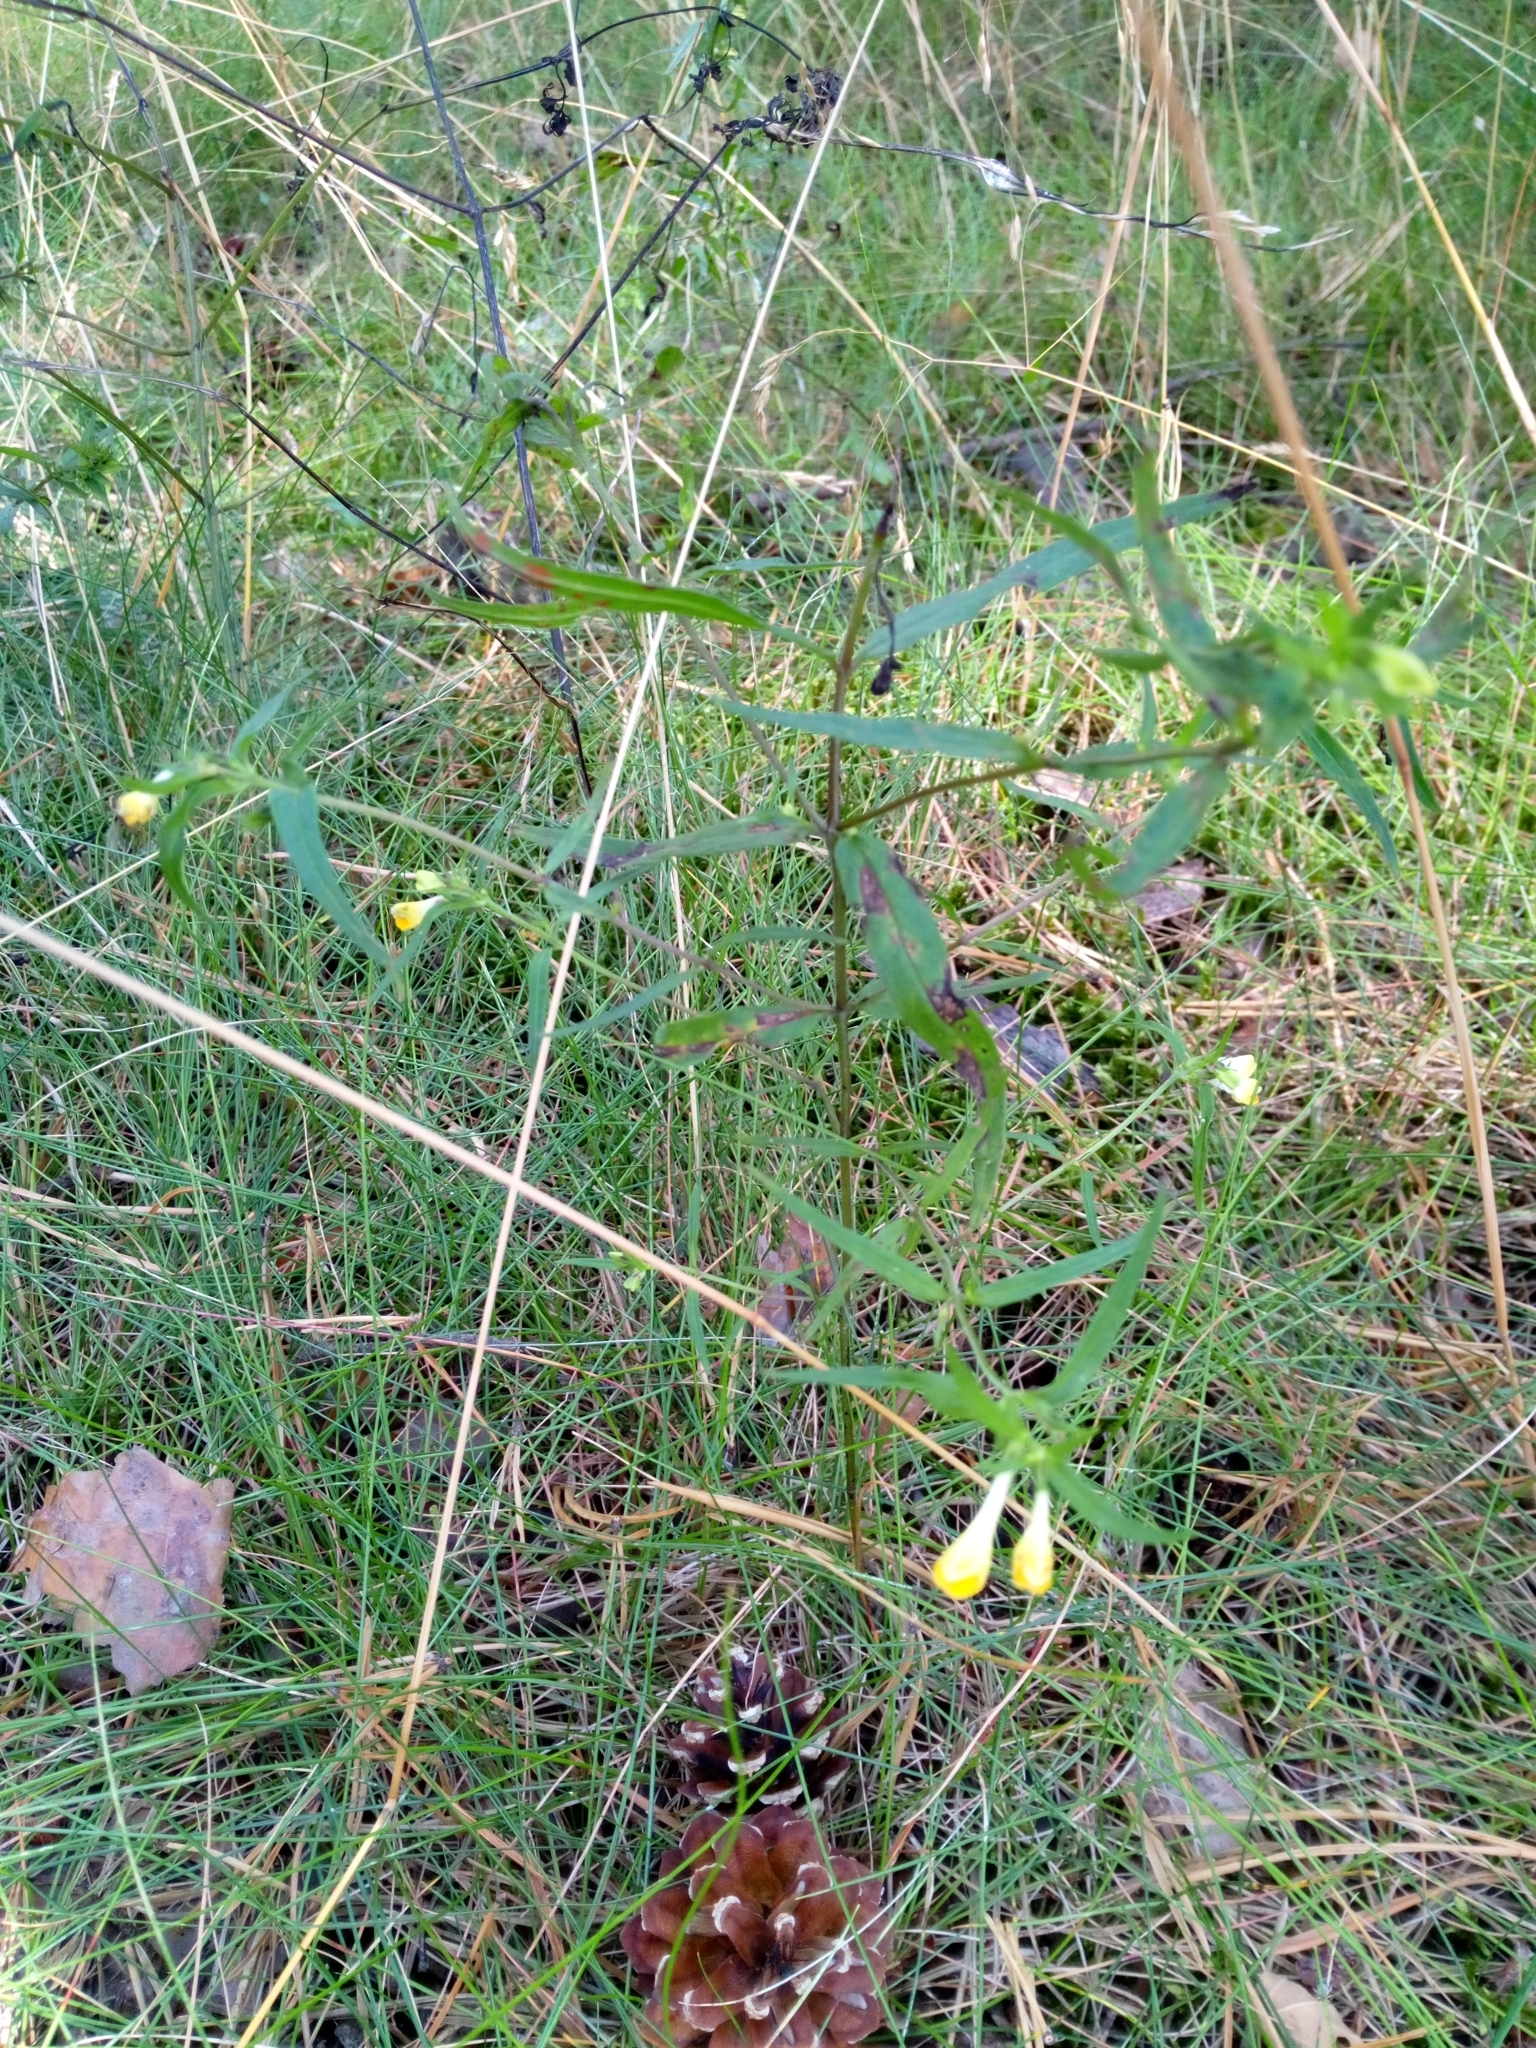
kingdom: Plantae
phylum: Tracheophyta
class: Magnoliopsida
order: Lamiales
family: Orobanchaceae
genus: Melampyrum
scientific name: Melampyrum pratense
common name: Common cow-wheat
